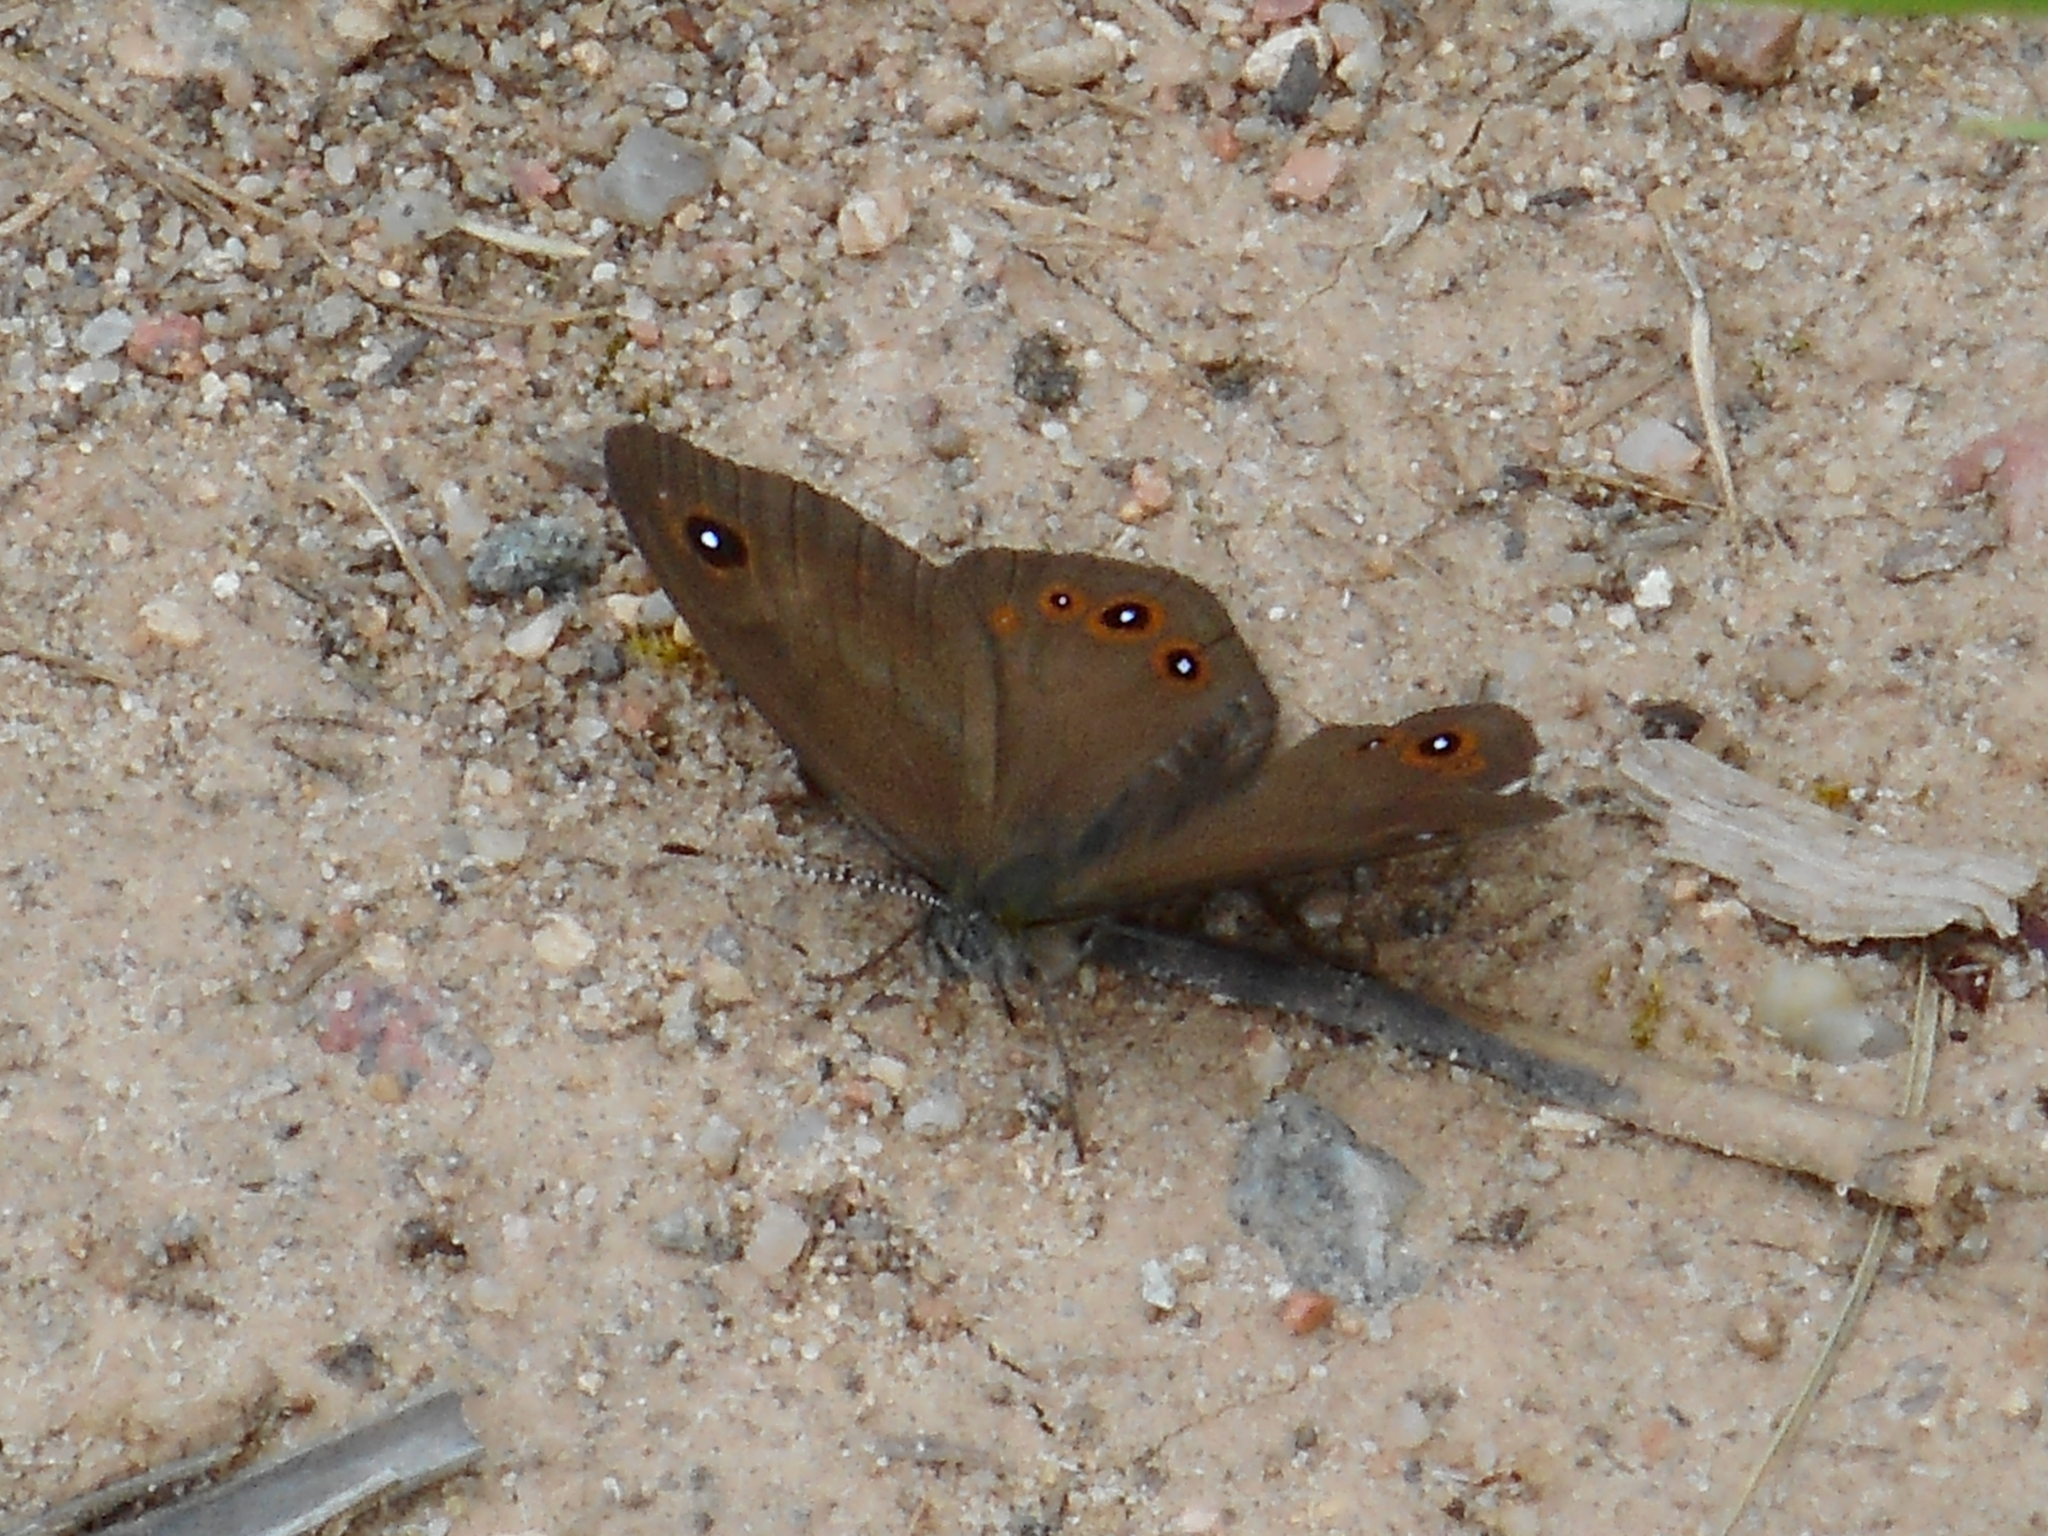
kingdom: Animalia
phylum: Arthropoda
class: Insecta
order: Lepidoptera
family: Nymphalidae
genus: Pararge
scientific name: Pararge Lasiommata maera
